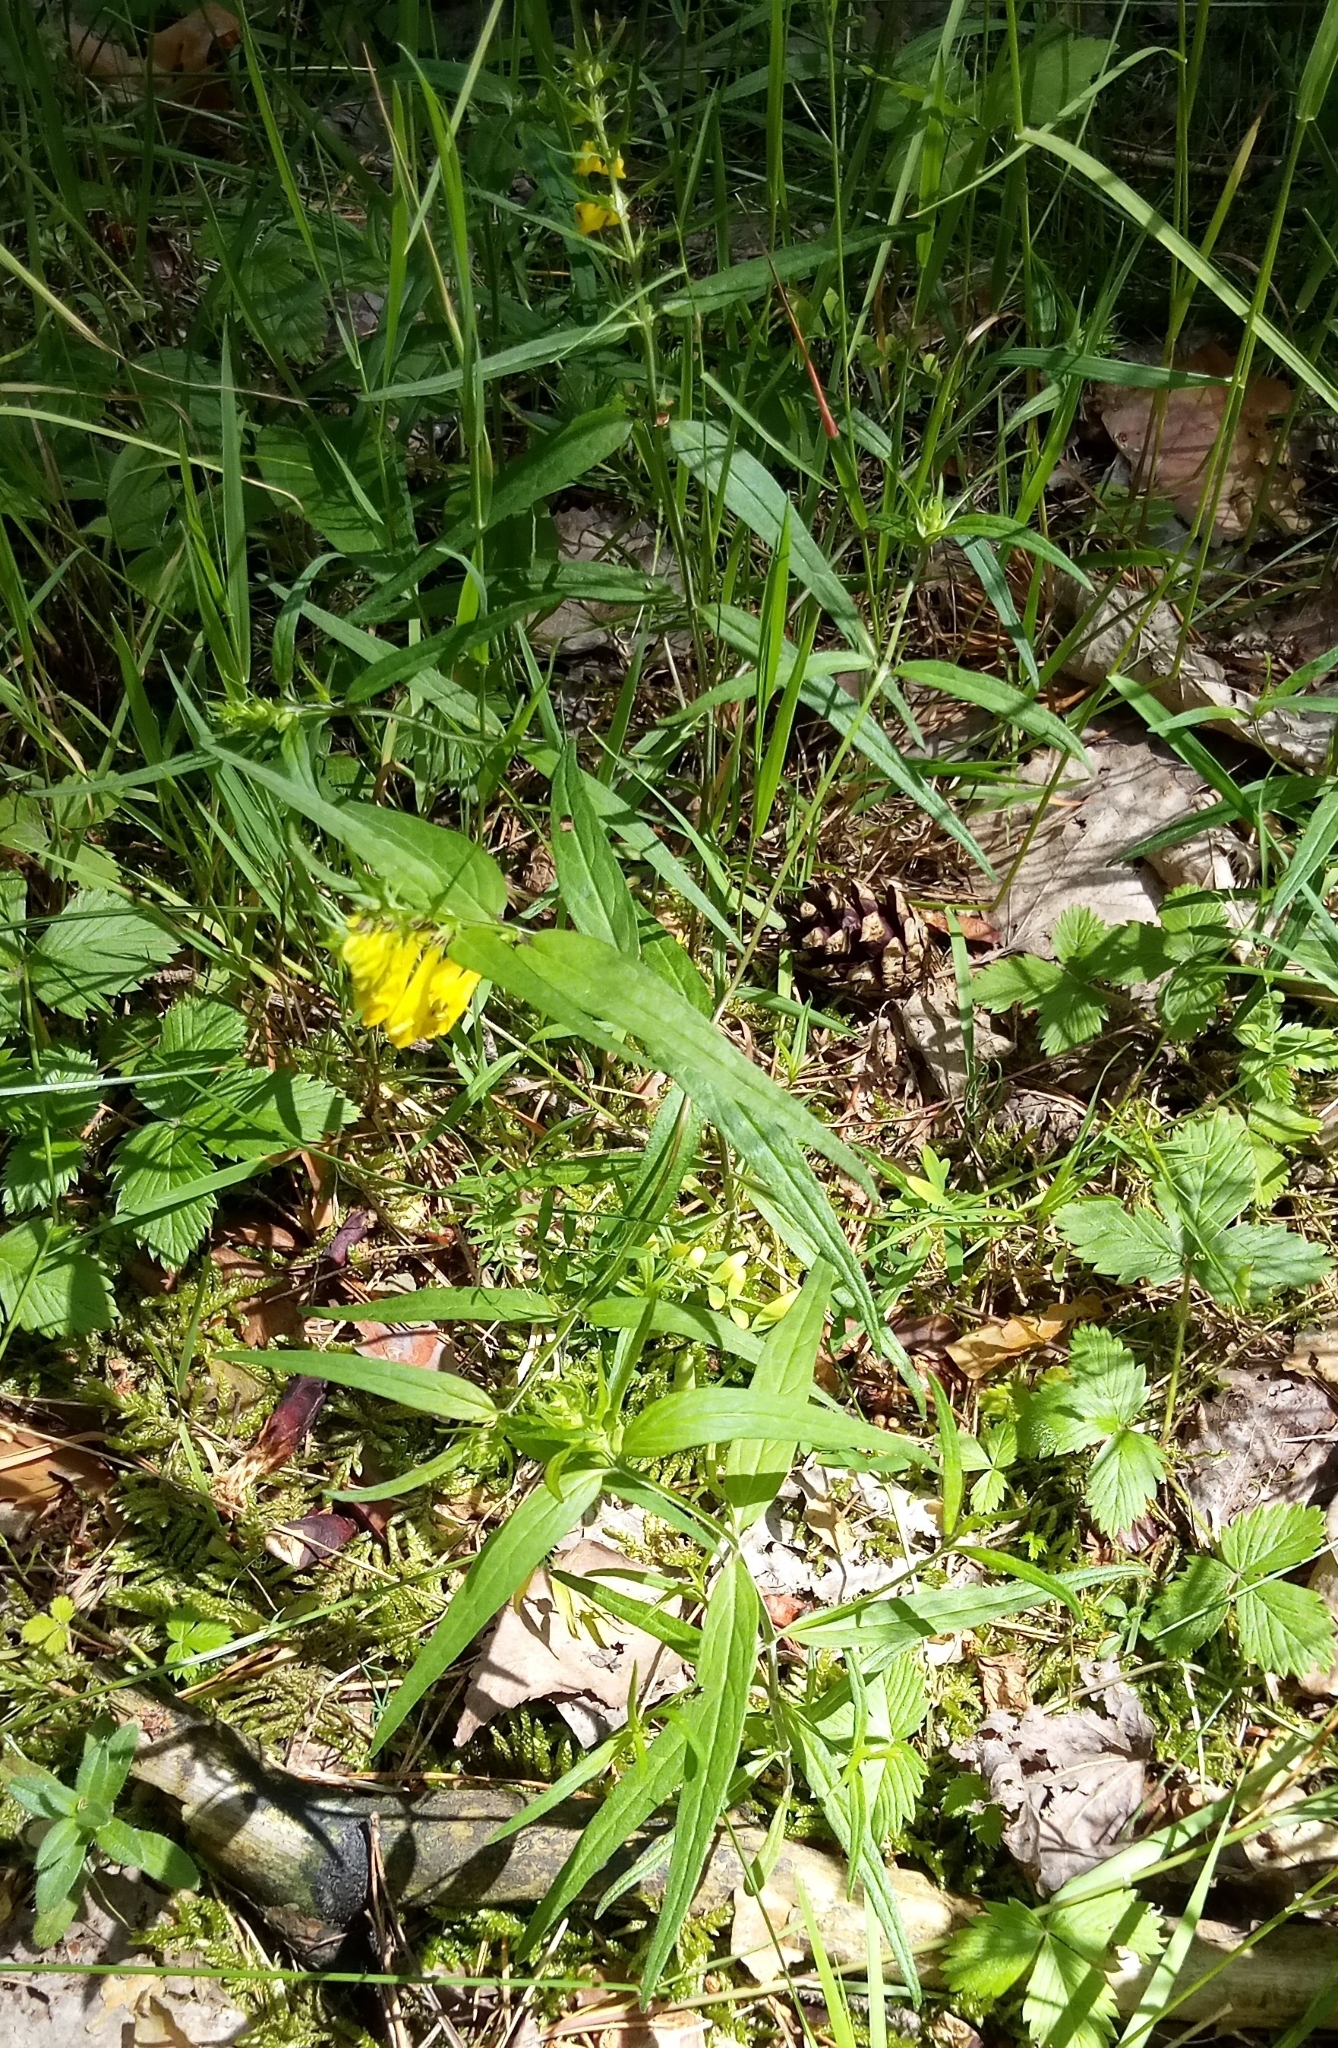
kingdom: Plantae
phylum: Tracheophyta
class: Magnoliopsida
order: Lamiales
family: Orobanchaceae
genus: Melampyrum
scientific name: Melampyrum pratense
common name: Common cow-wheat
